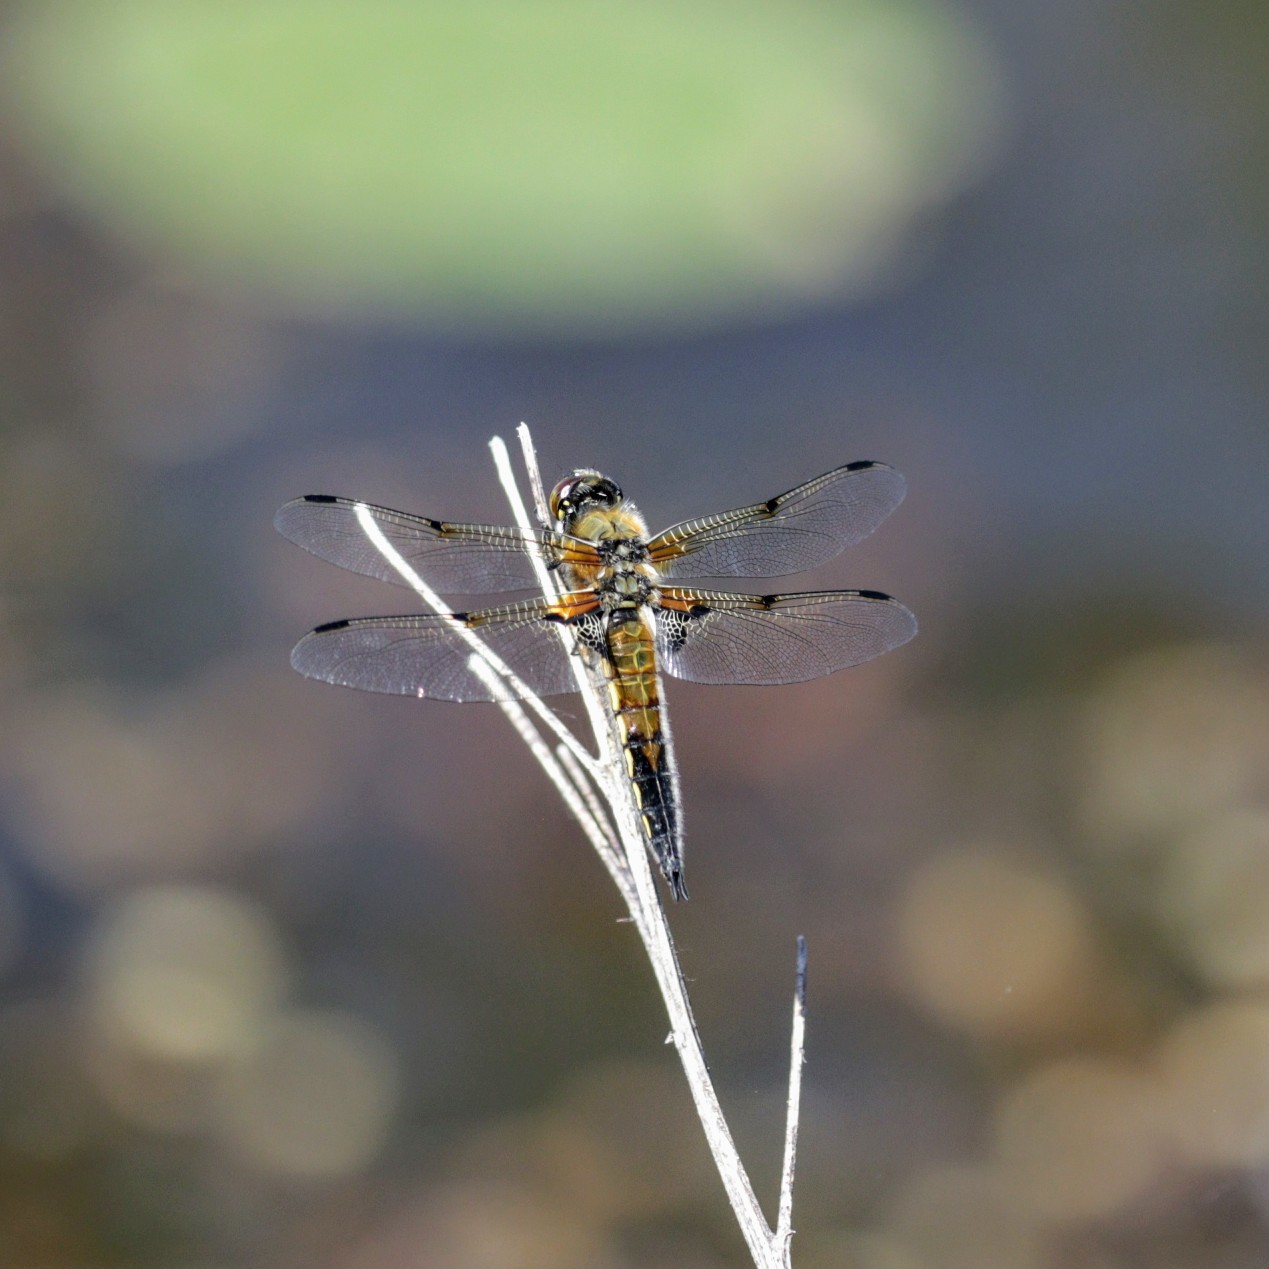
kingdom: Animalia
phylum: Arthropoda
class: Insecta
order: Odonata
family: Libellulidae
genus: Libellula
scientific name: Libellula quadrimaculata
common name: Four-spotted chaser
